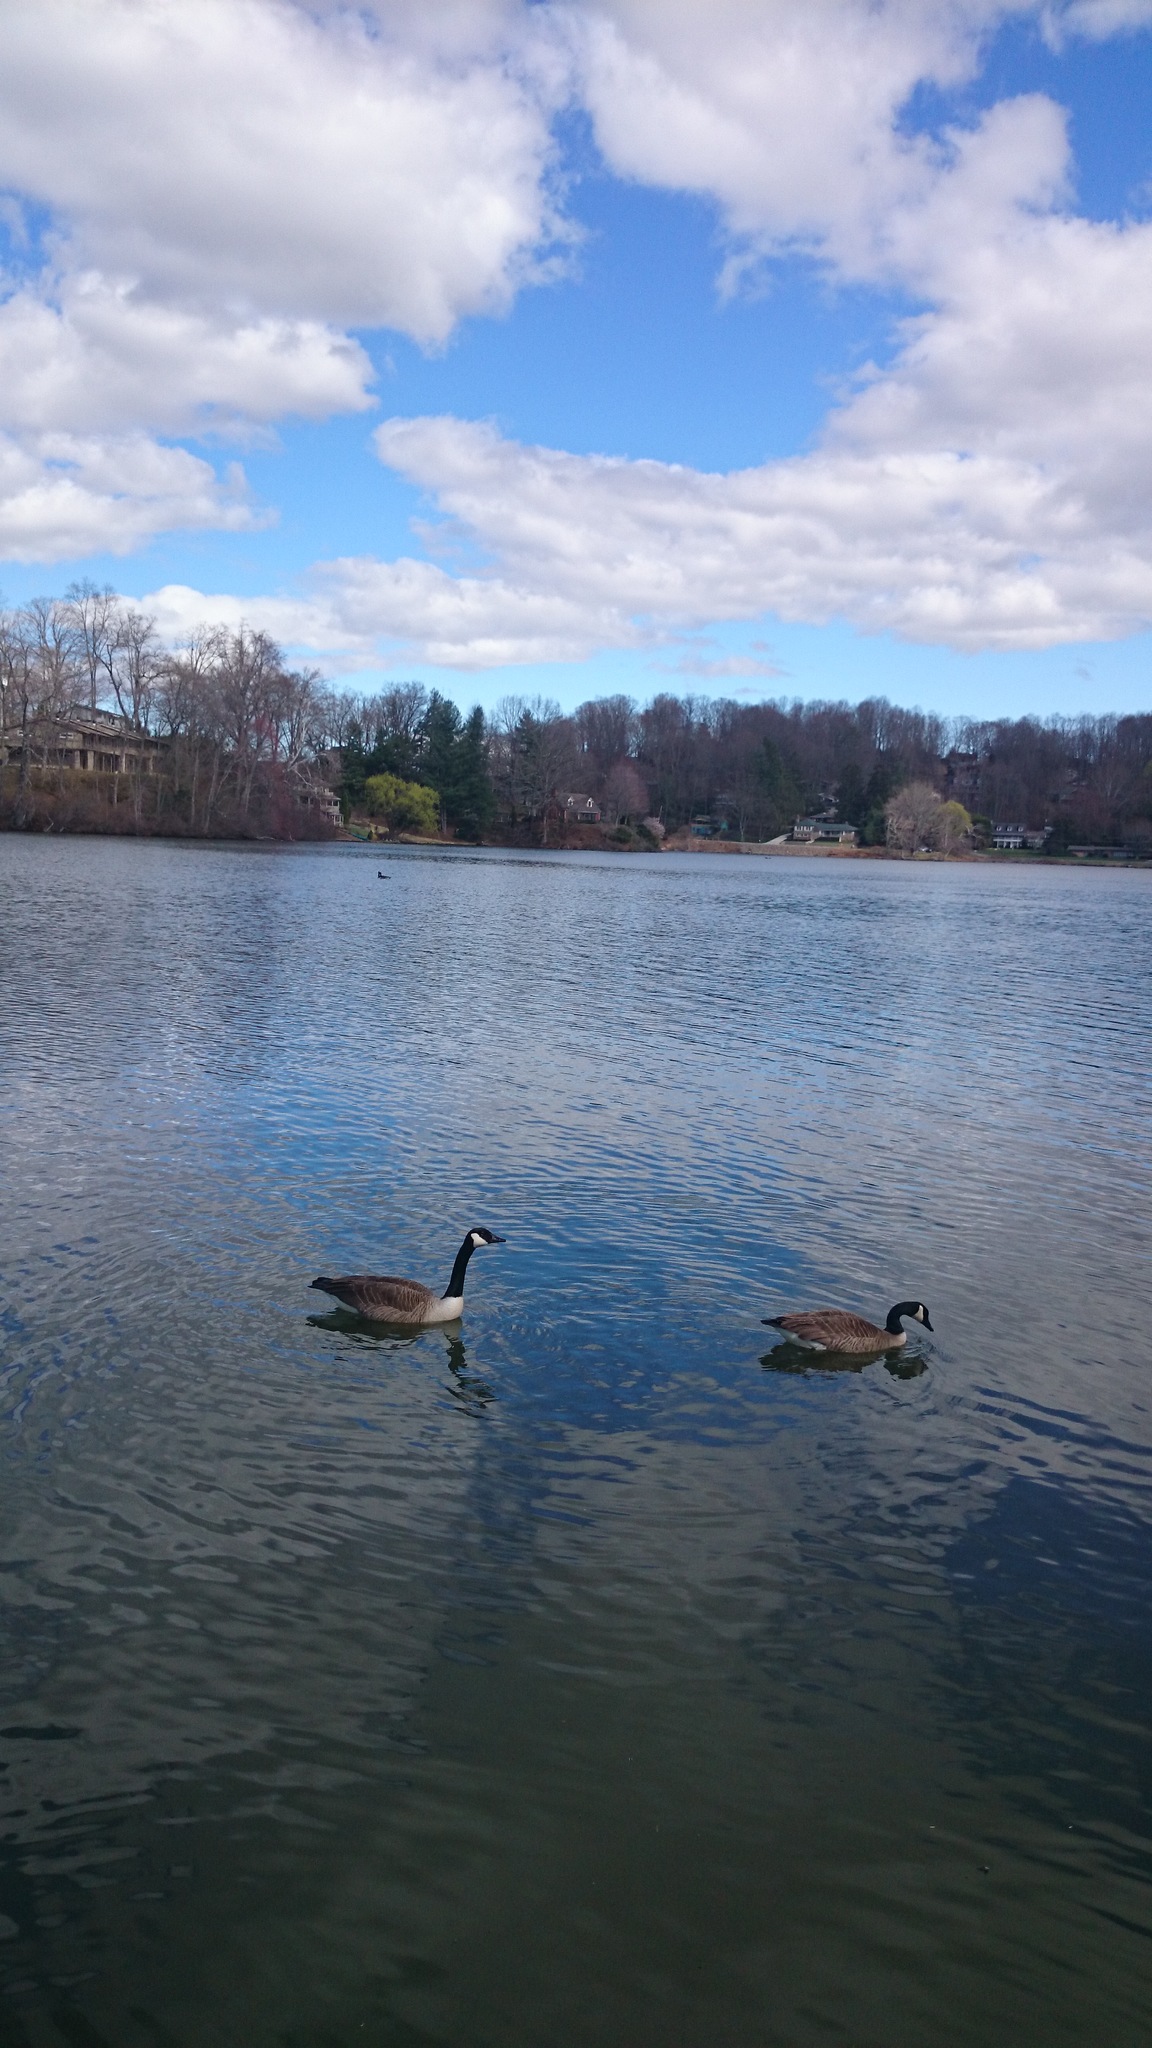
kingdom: Animalia
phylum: Chordata
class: Aves
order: Anseriformes
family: Anatidae
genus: Branta
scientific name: Branta canadensis
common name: Canada goose
